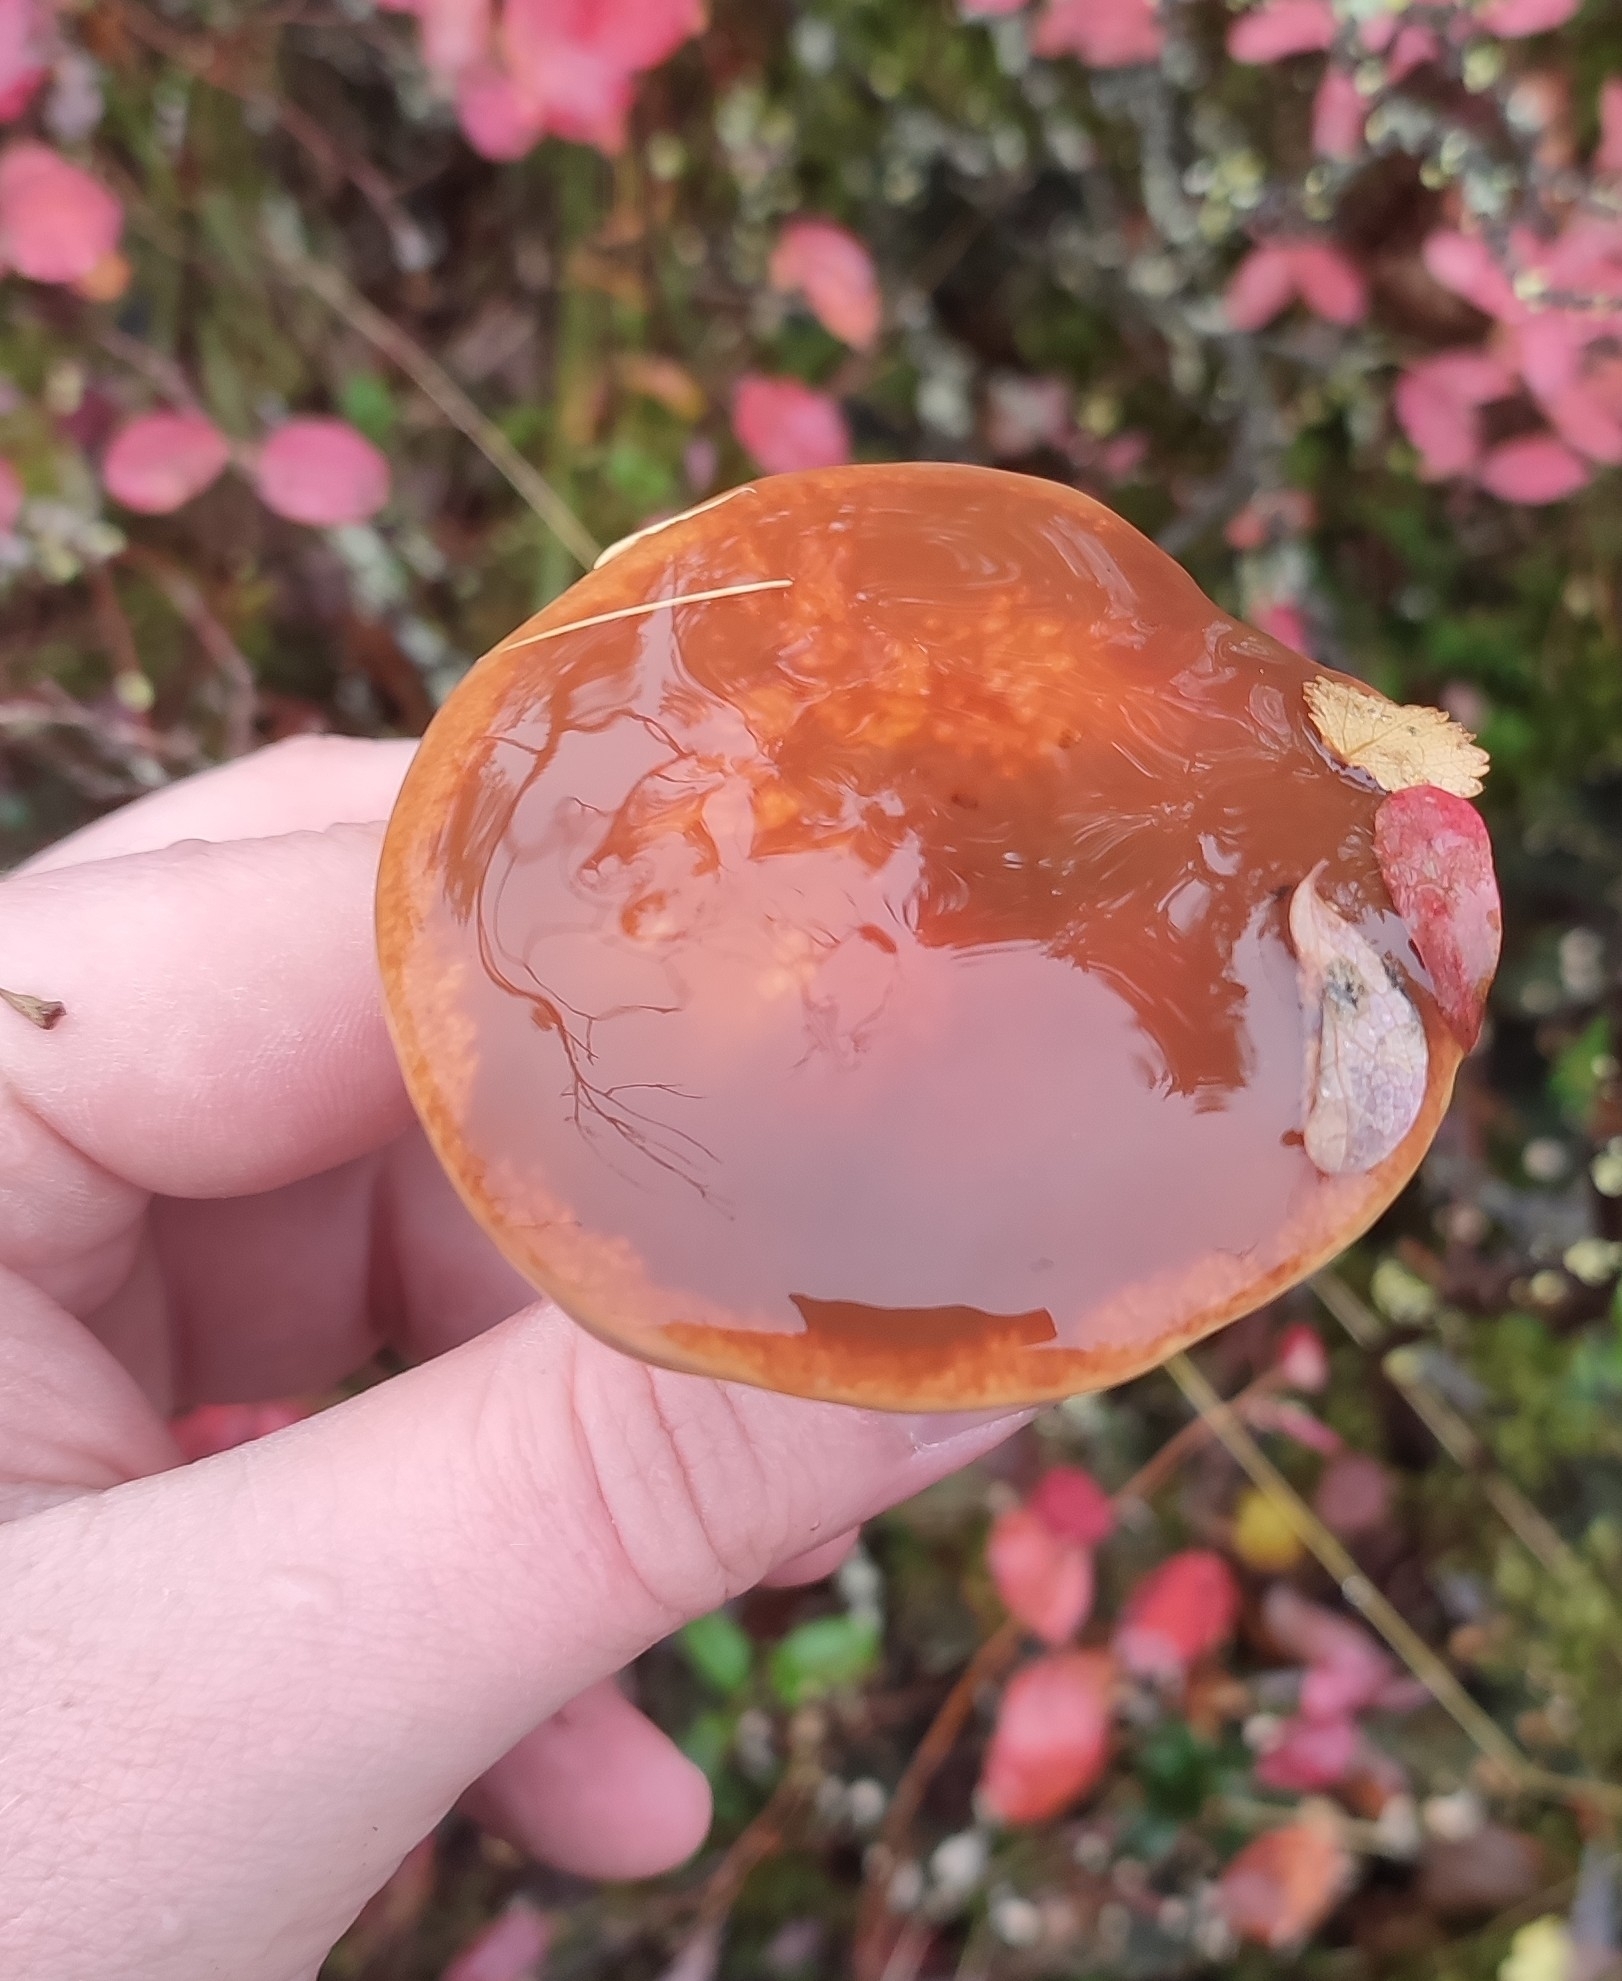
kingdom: Fungi
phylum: Basidiomycota
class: Agaricomycetes
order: Boletales
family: Suillaceae
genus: Suillus
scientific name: Suillus grevillei
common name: Larch bolete
